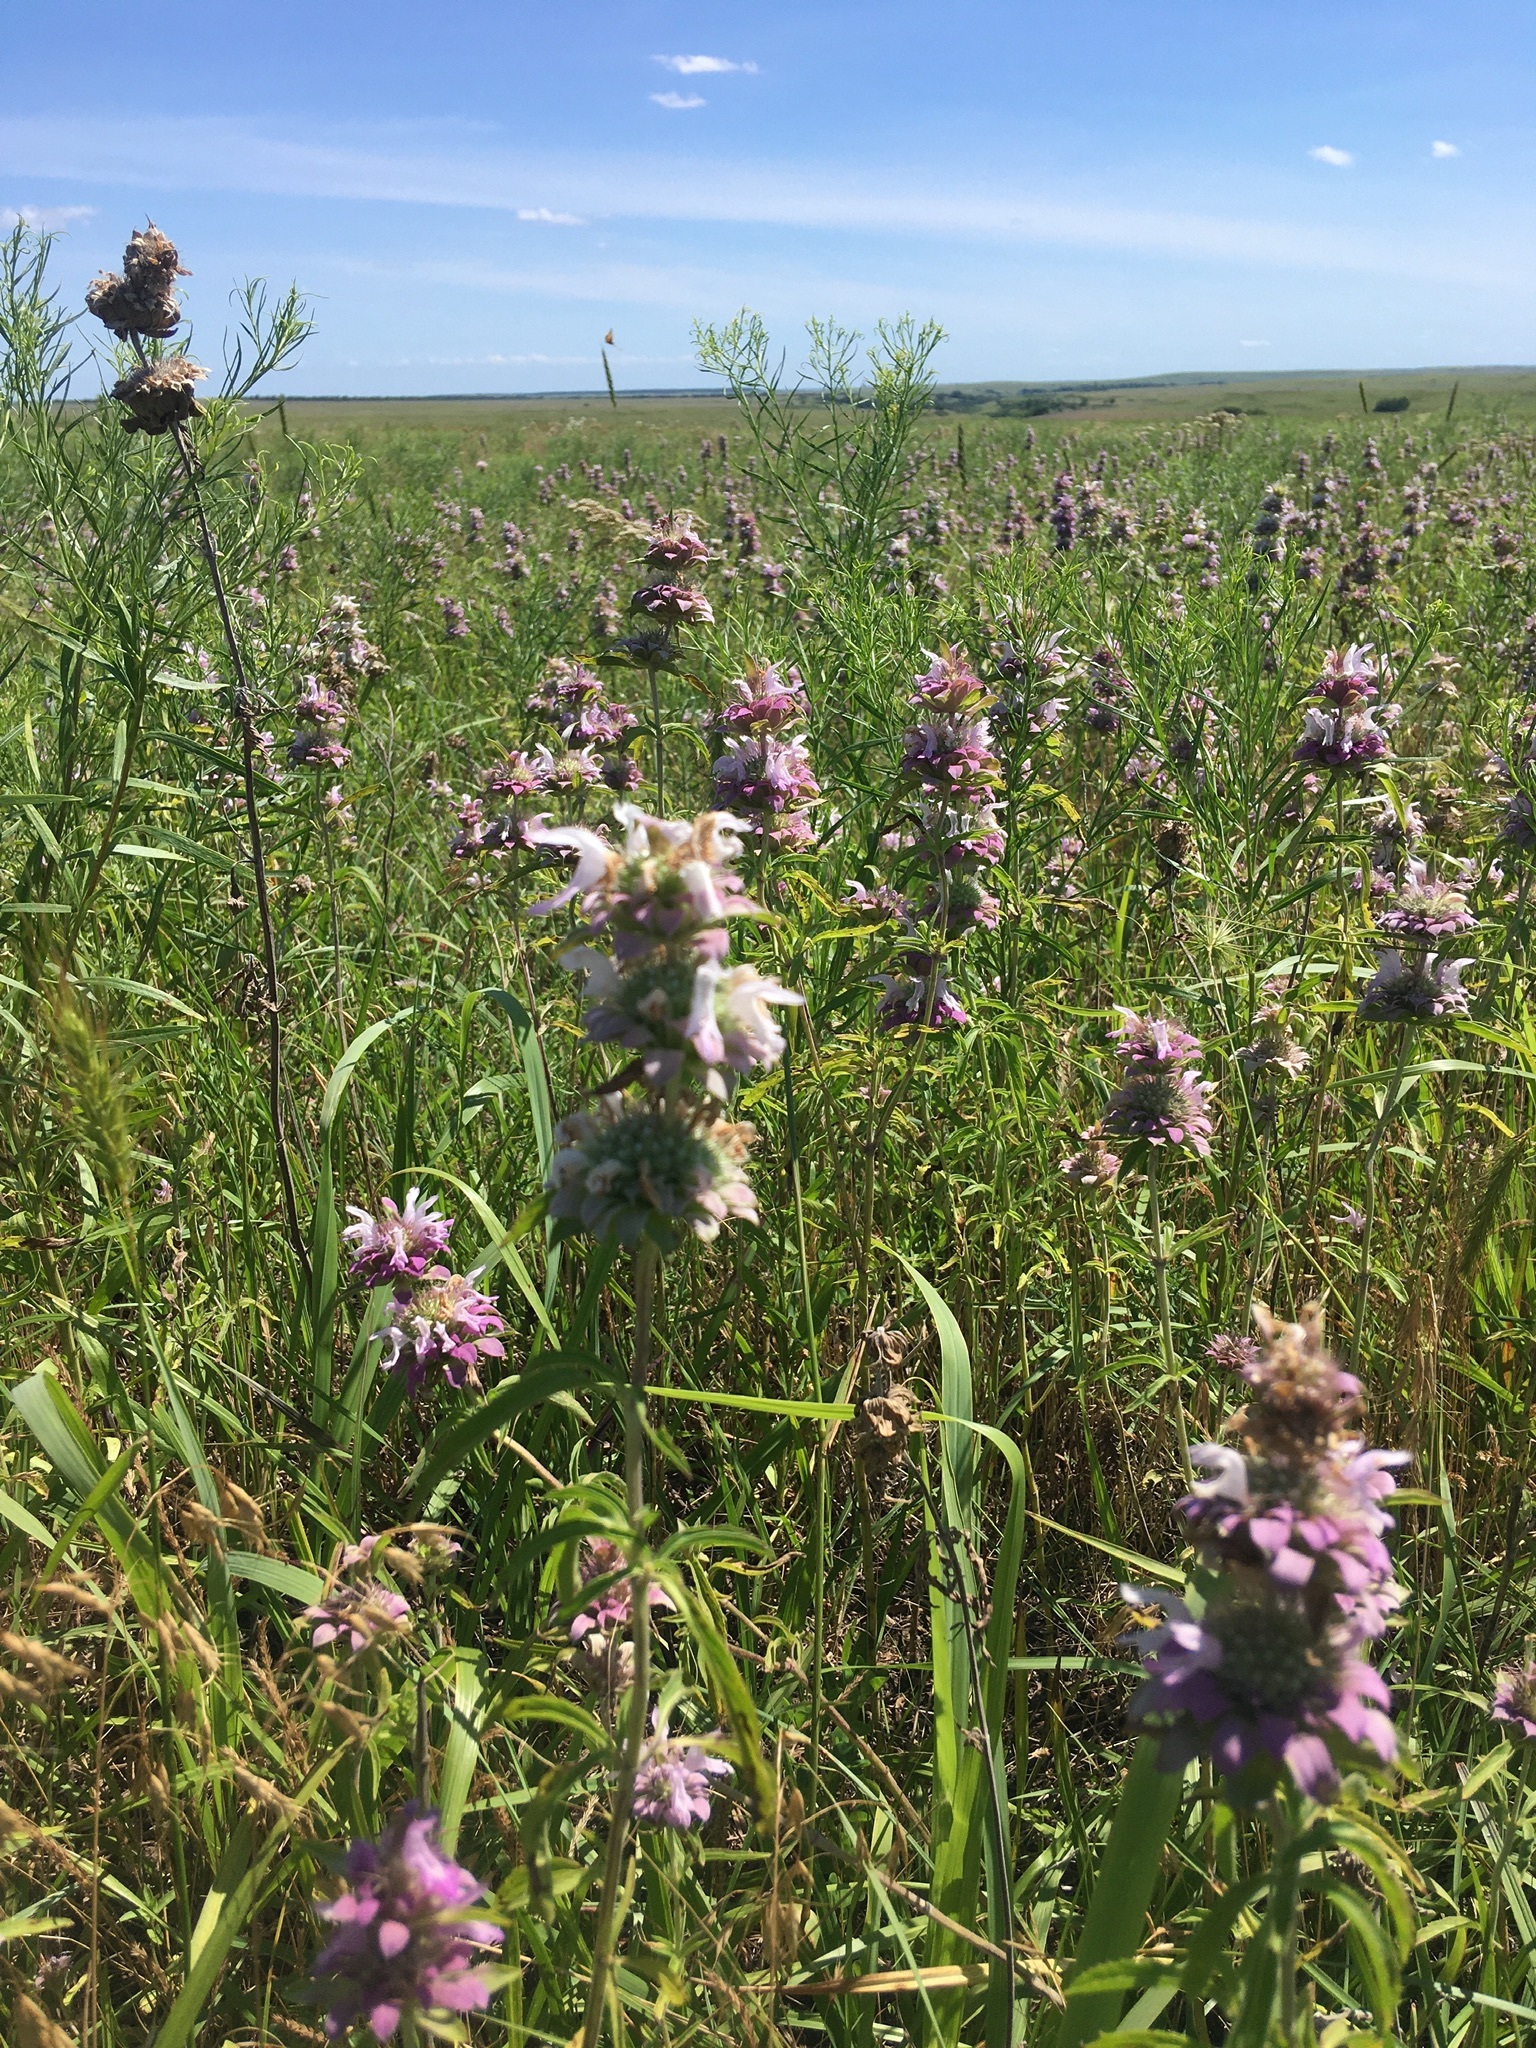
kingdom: Plantae
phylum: Tracheophyta
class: Magnoliopsida
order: Lamiales
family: Lamiaceae
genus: Monarda
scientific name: Monarda citriodora
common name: Lemon beebalm
